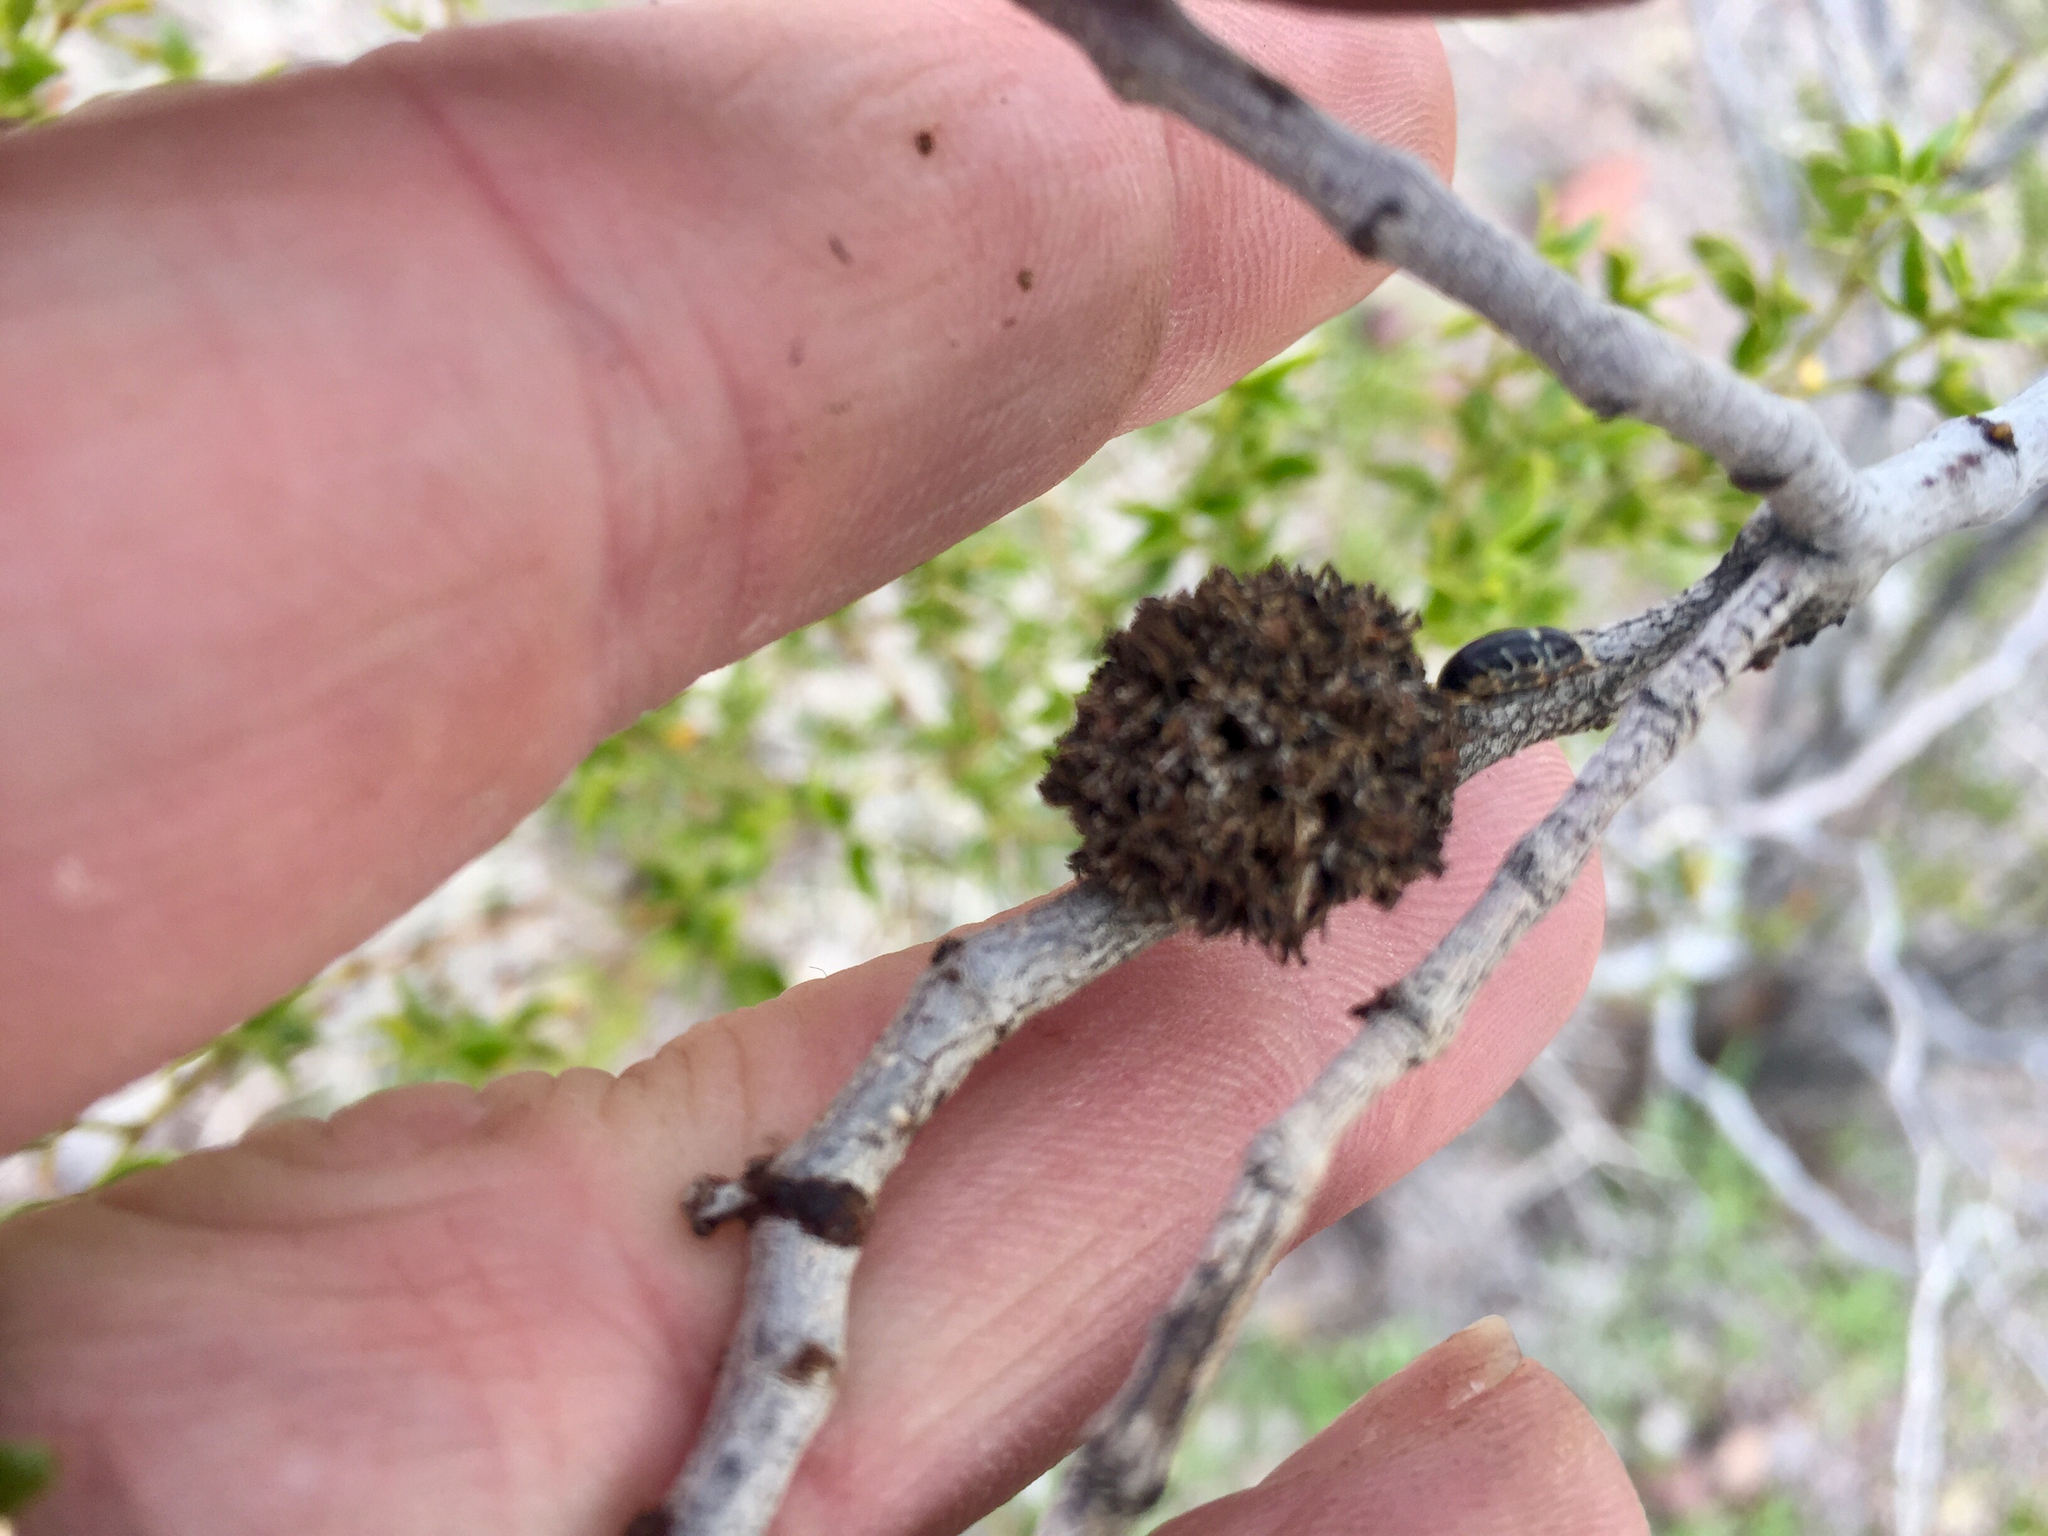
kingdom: Animalia
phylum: Arthropoda
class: Insecta
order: Diptera
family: Cecidomyiidae
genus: Asphondylia
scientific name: Asphondylia auripila
